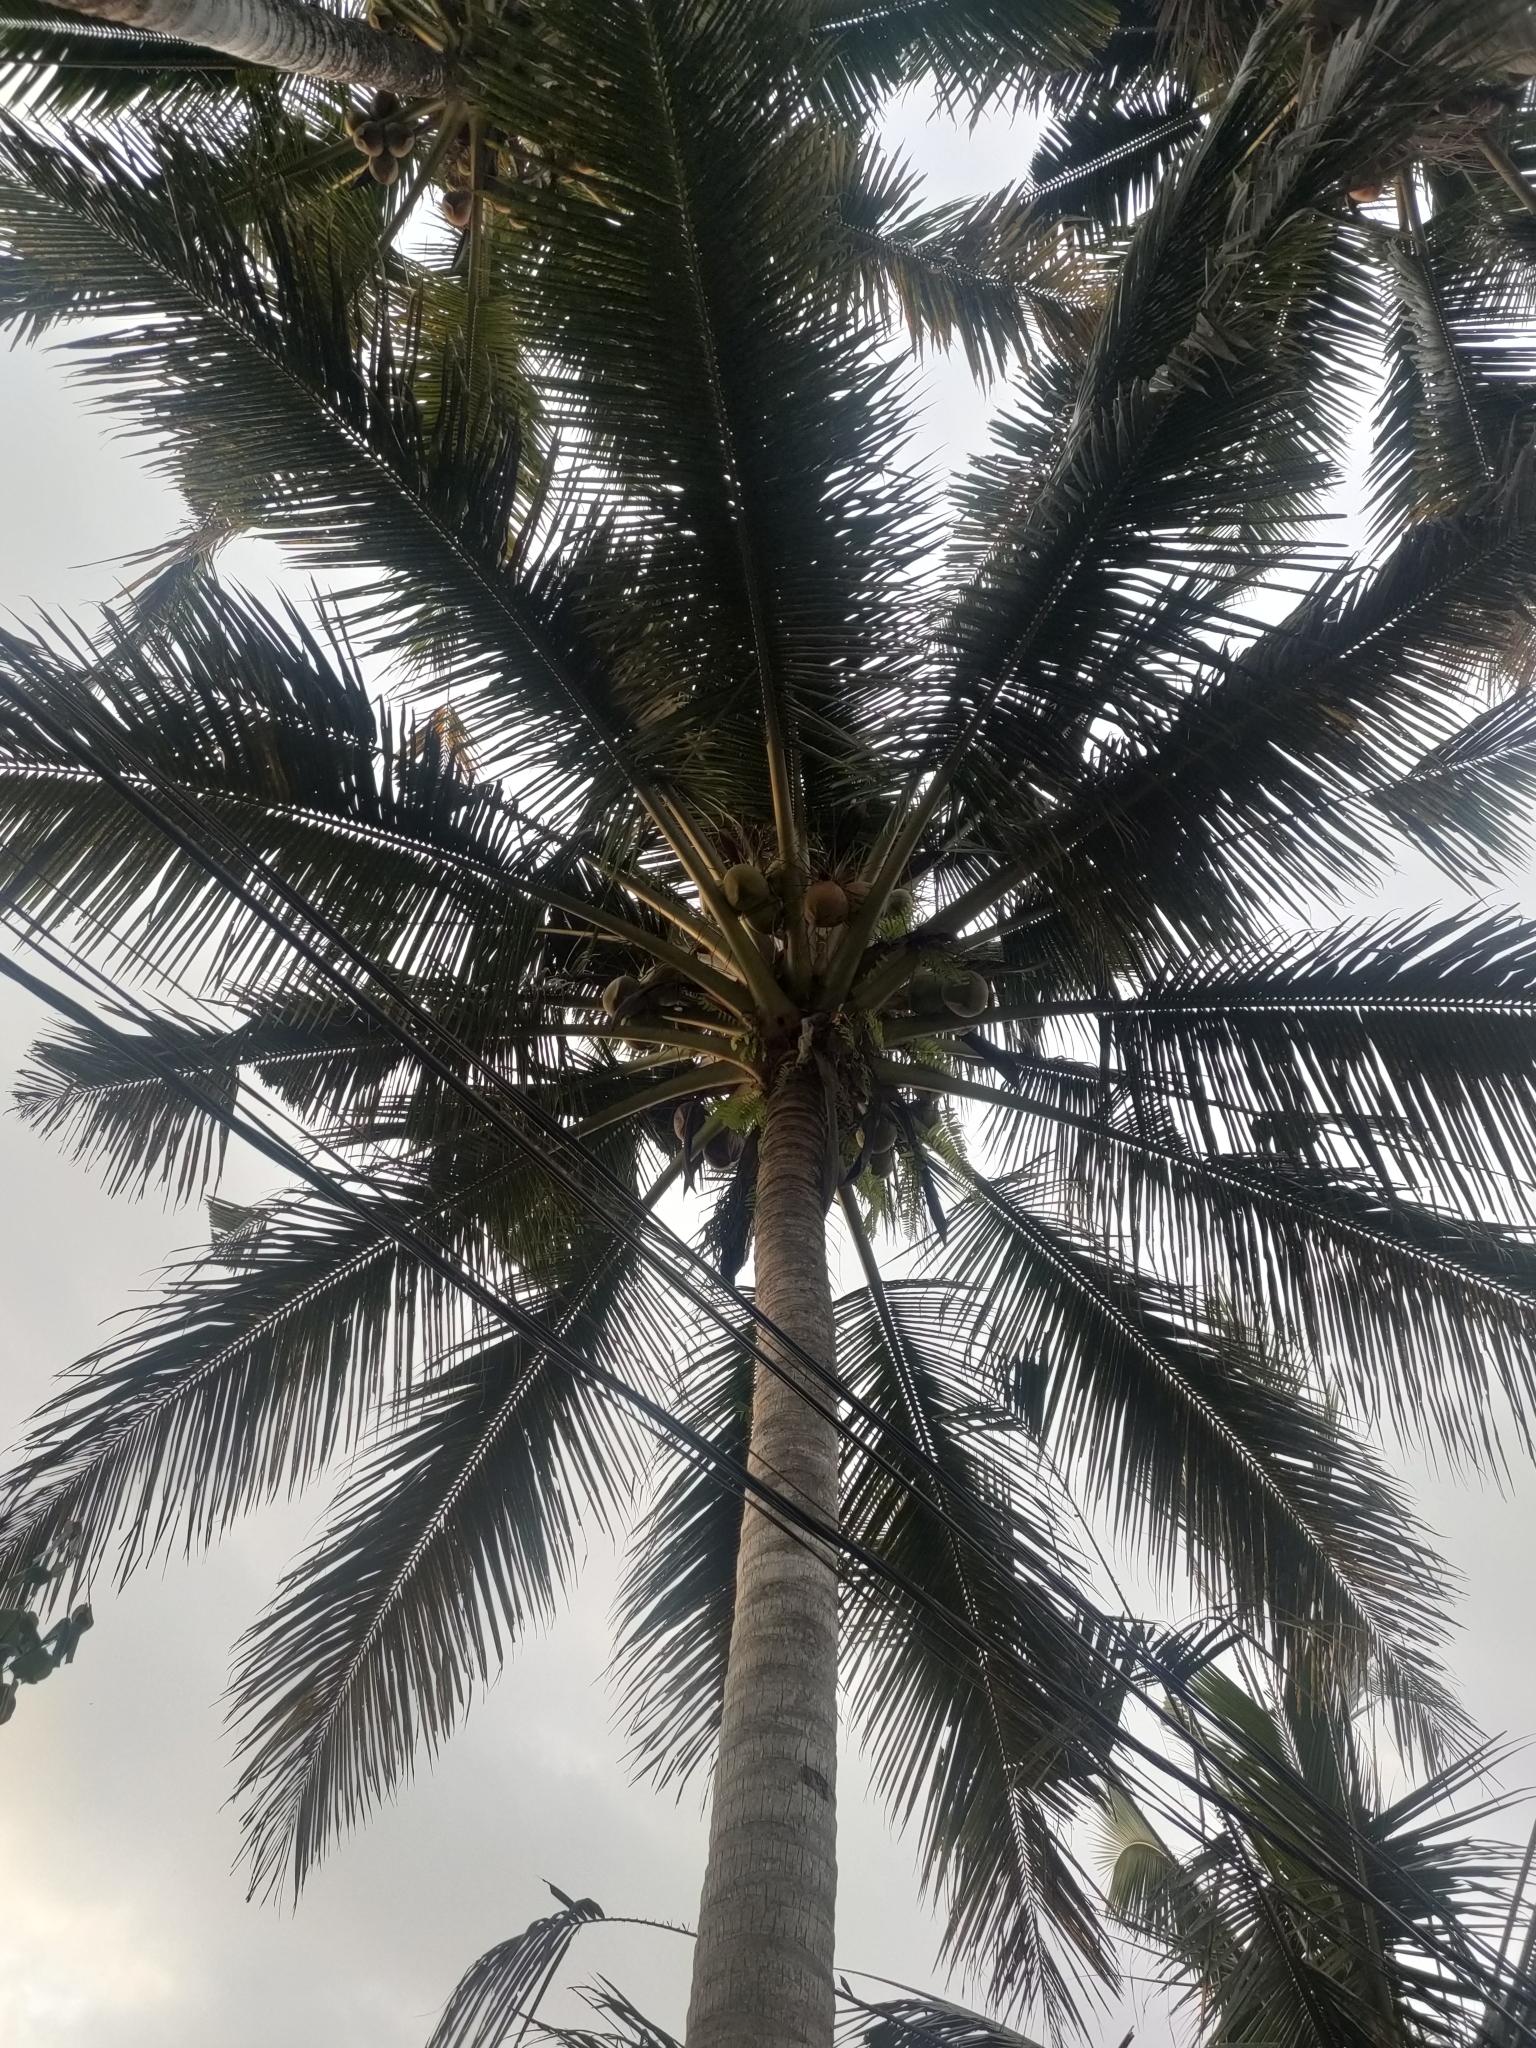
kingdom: Plantae
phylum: Tracheophyta
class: Liliopsida
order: Arecales
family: Arecaceae
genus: Cocos
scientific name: Cocos nucifera
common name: Coconut palm
